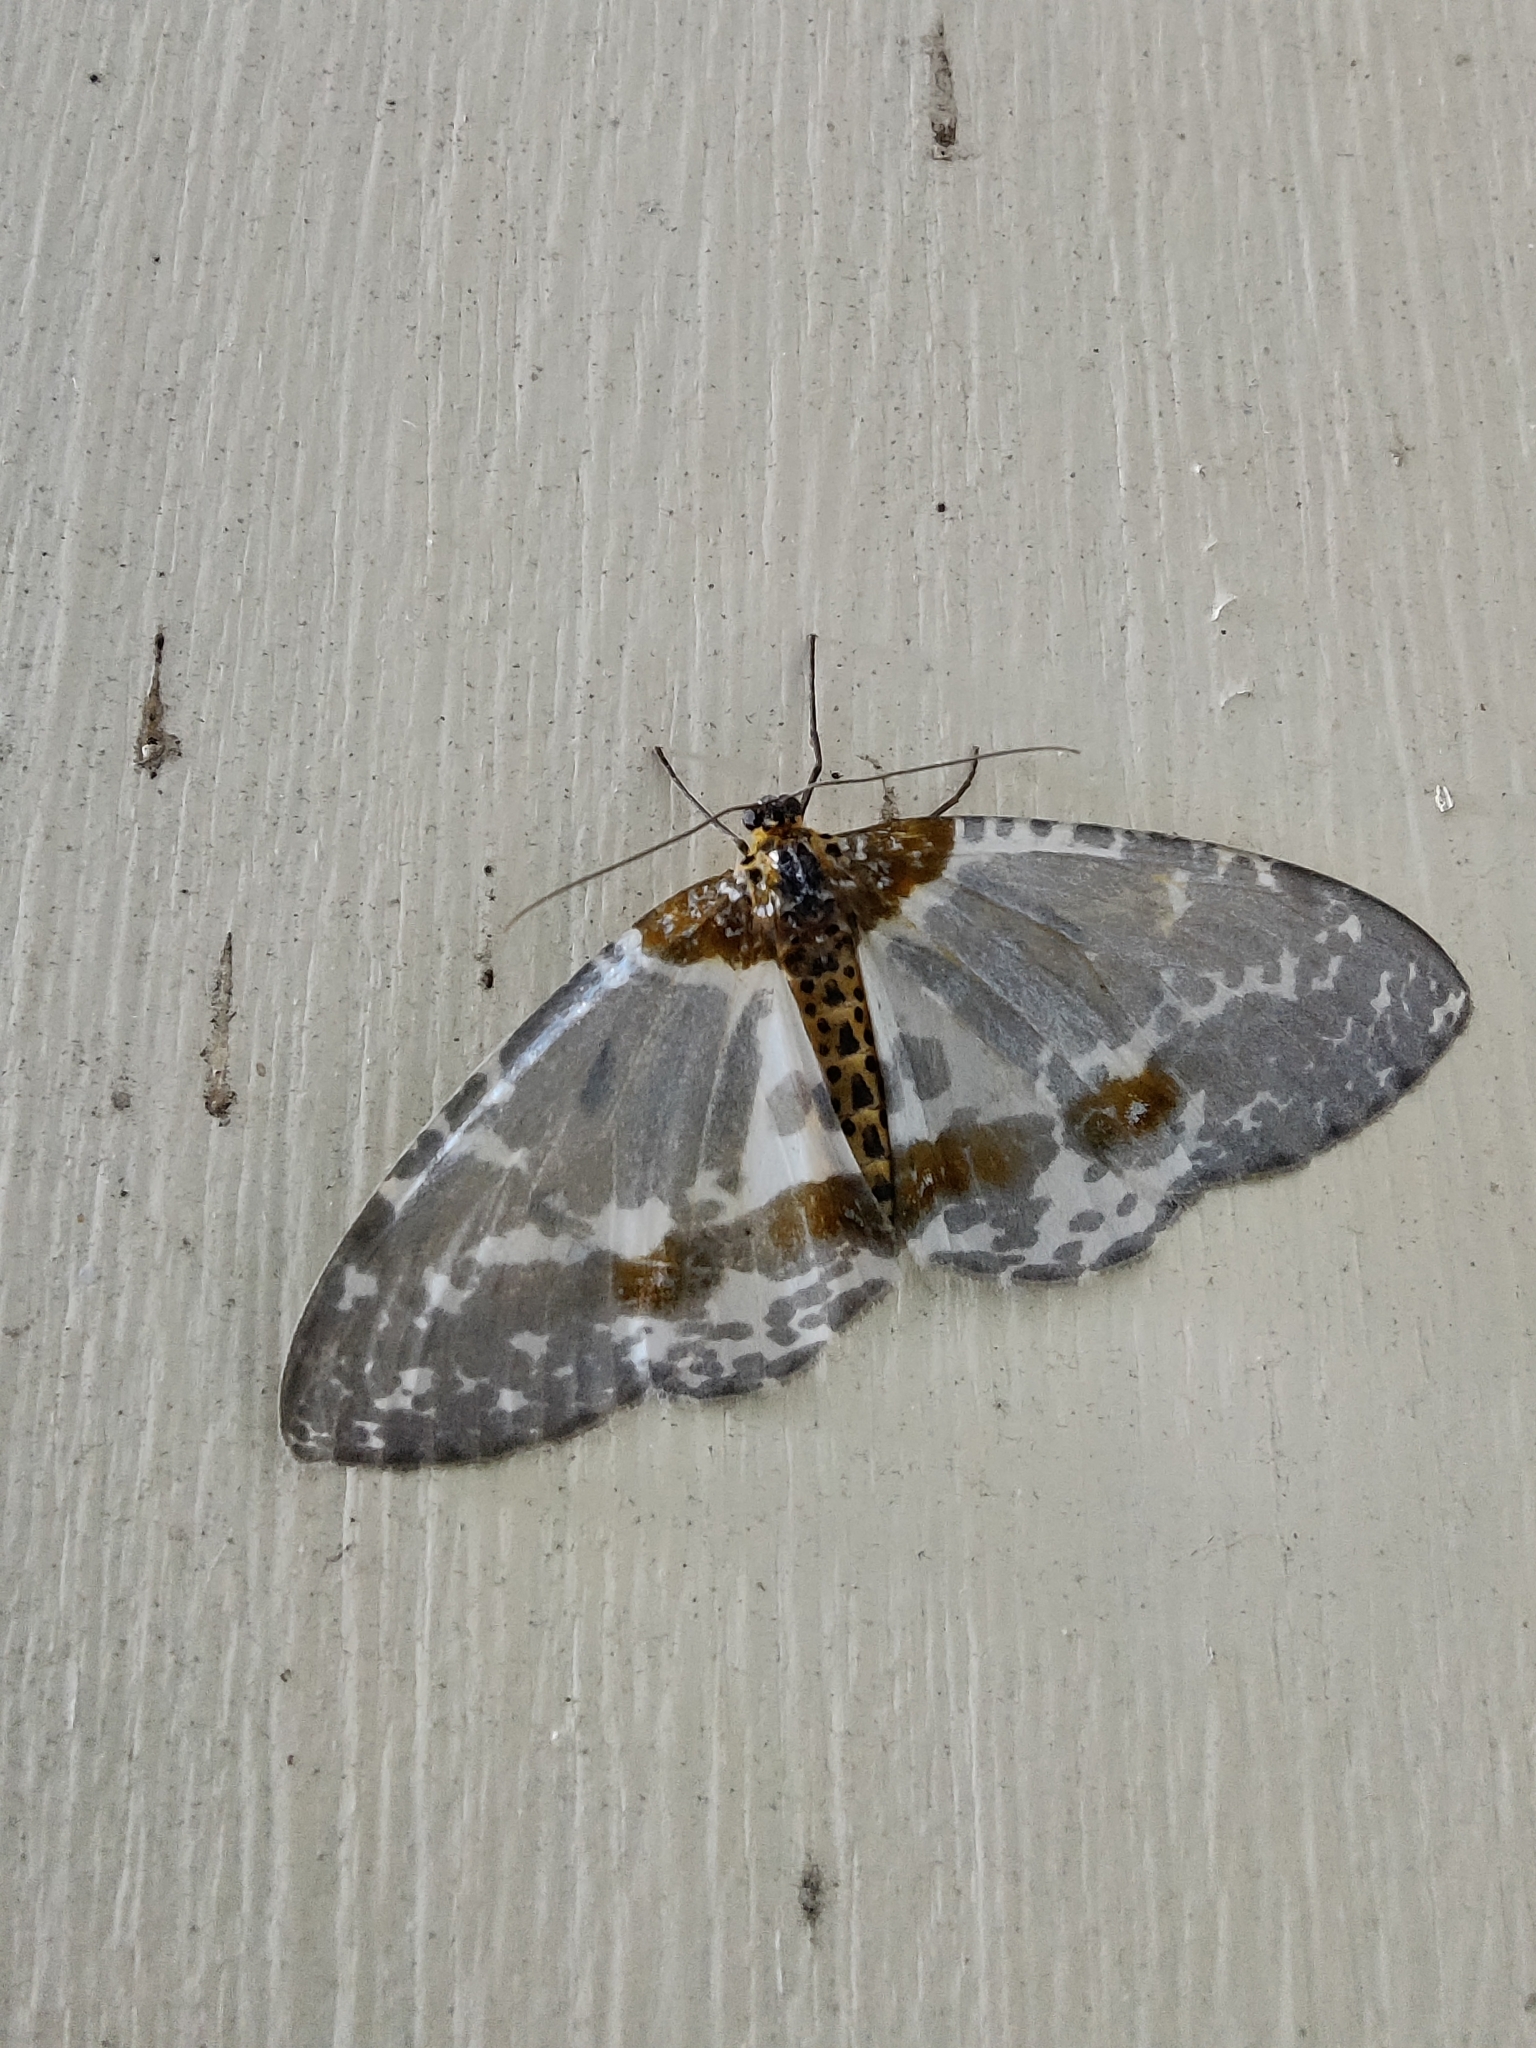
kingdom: Animalia
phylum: Arthropoda
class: Insecta
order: Lepidoptera
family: Geometridae
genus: Abraxas
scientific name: Abraxas neomartaria
